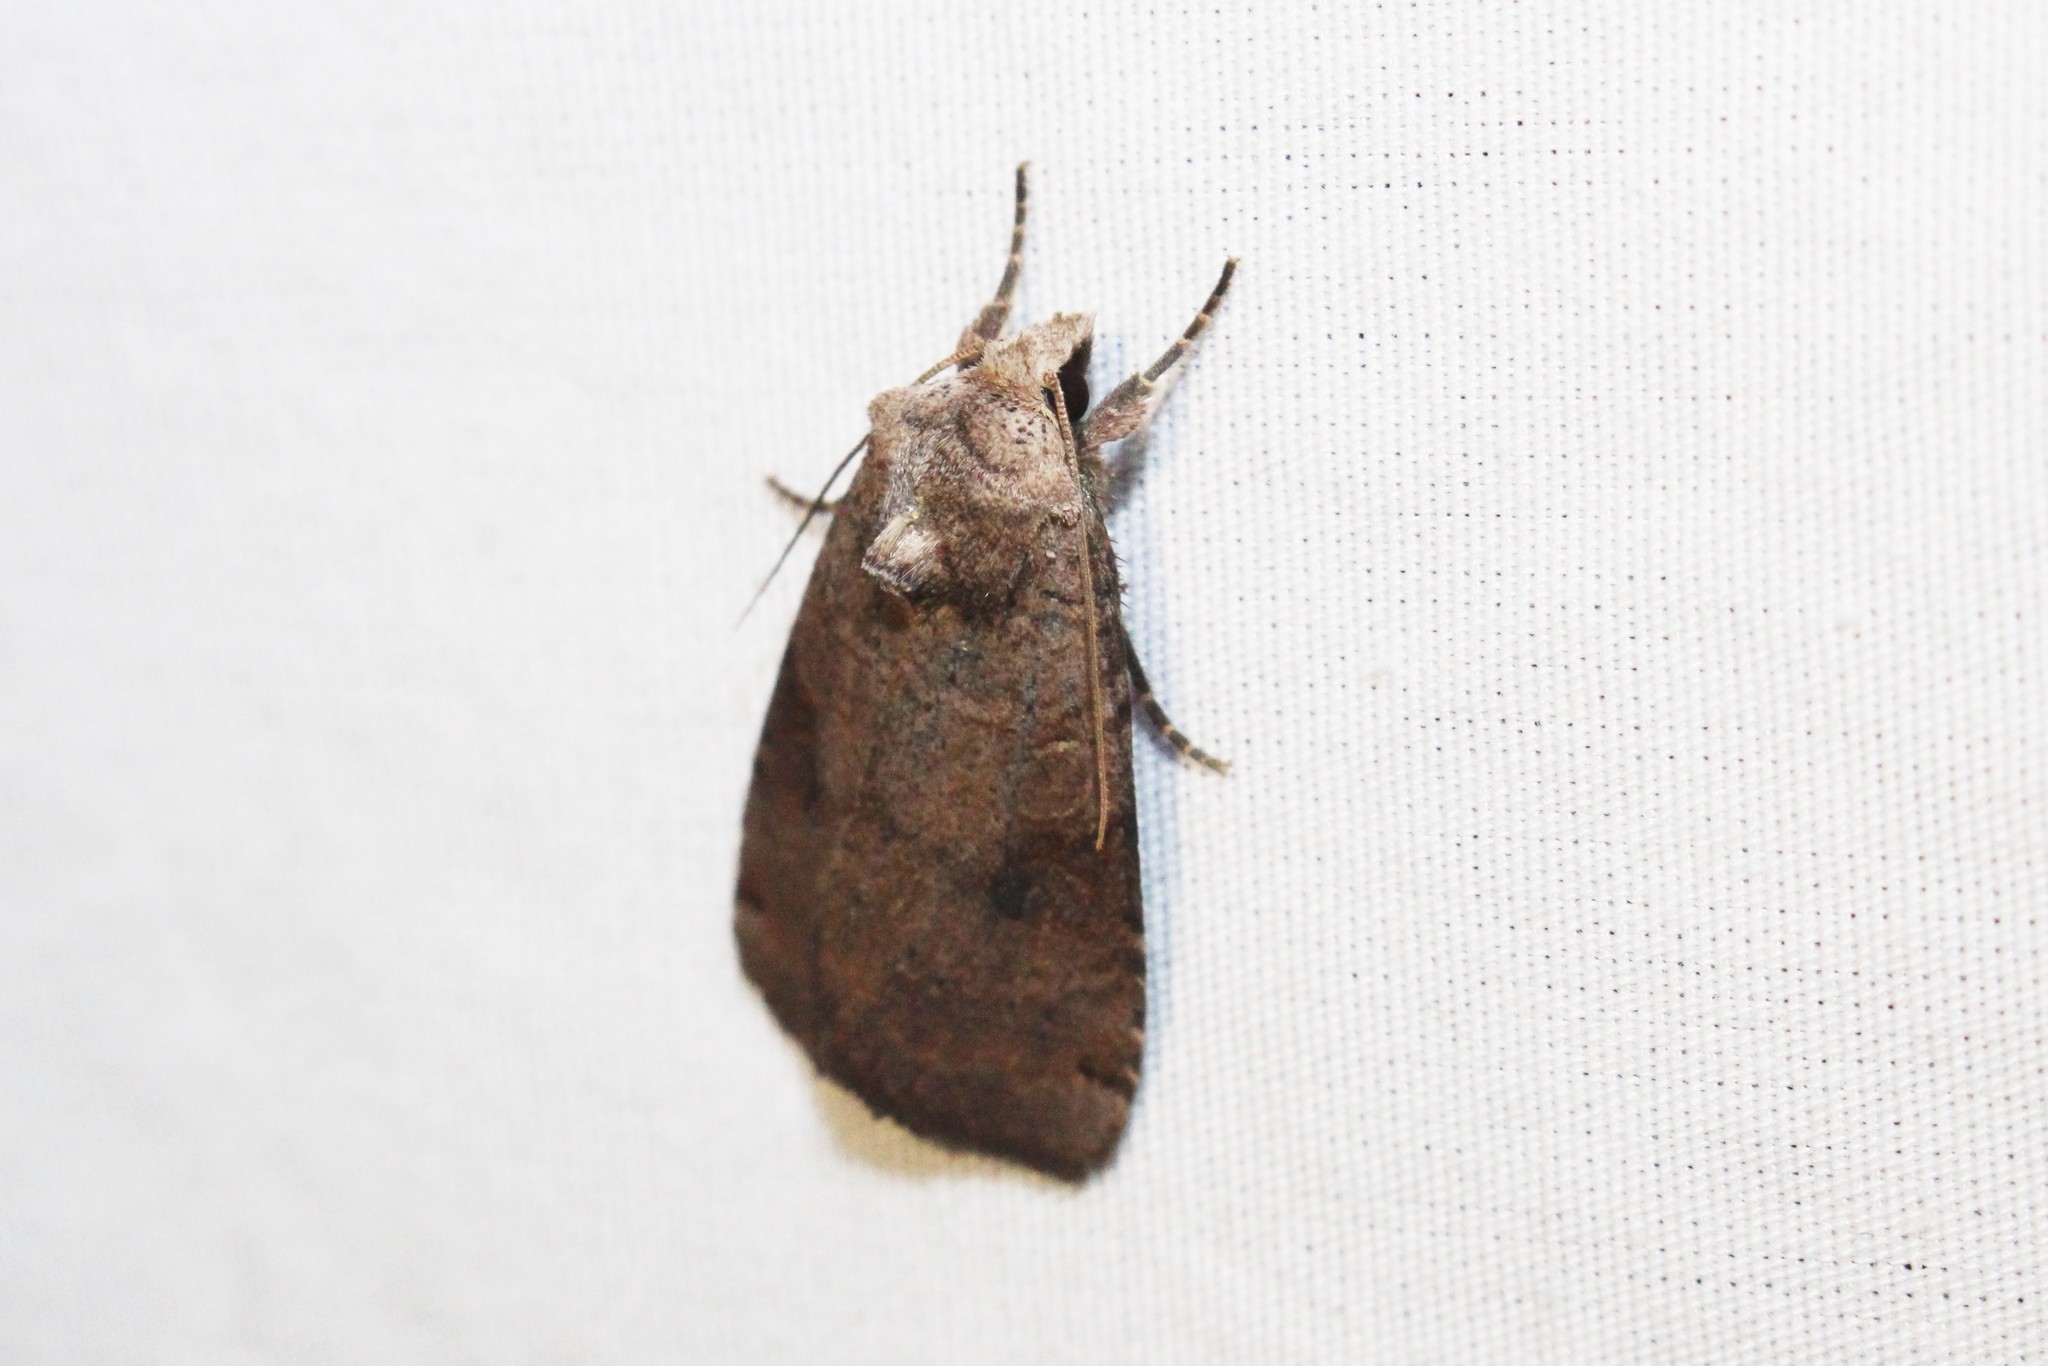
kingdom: Animalia
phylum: Arthropoda
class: Insecta
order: Lepidoptera
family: Noctuidae
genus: Xestia
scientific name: Xestia smithii
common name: Smith's dart
